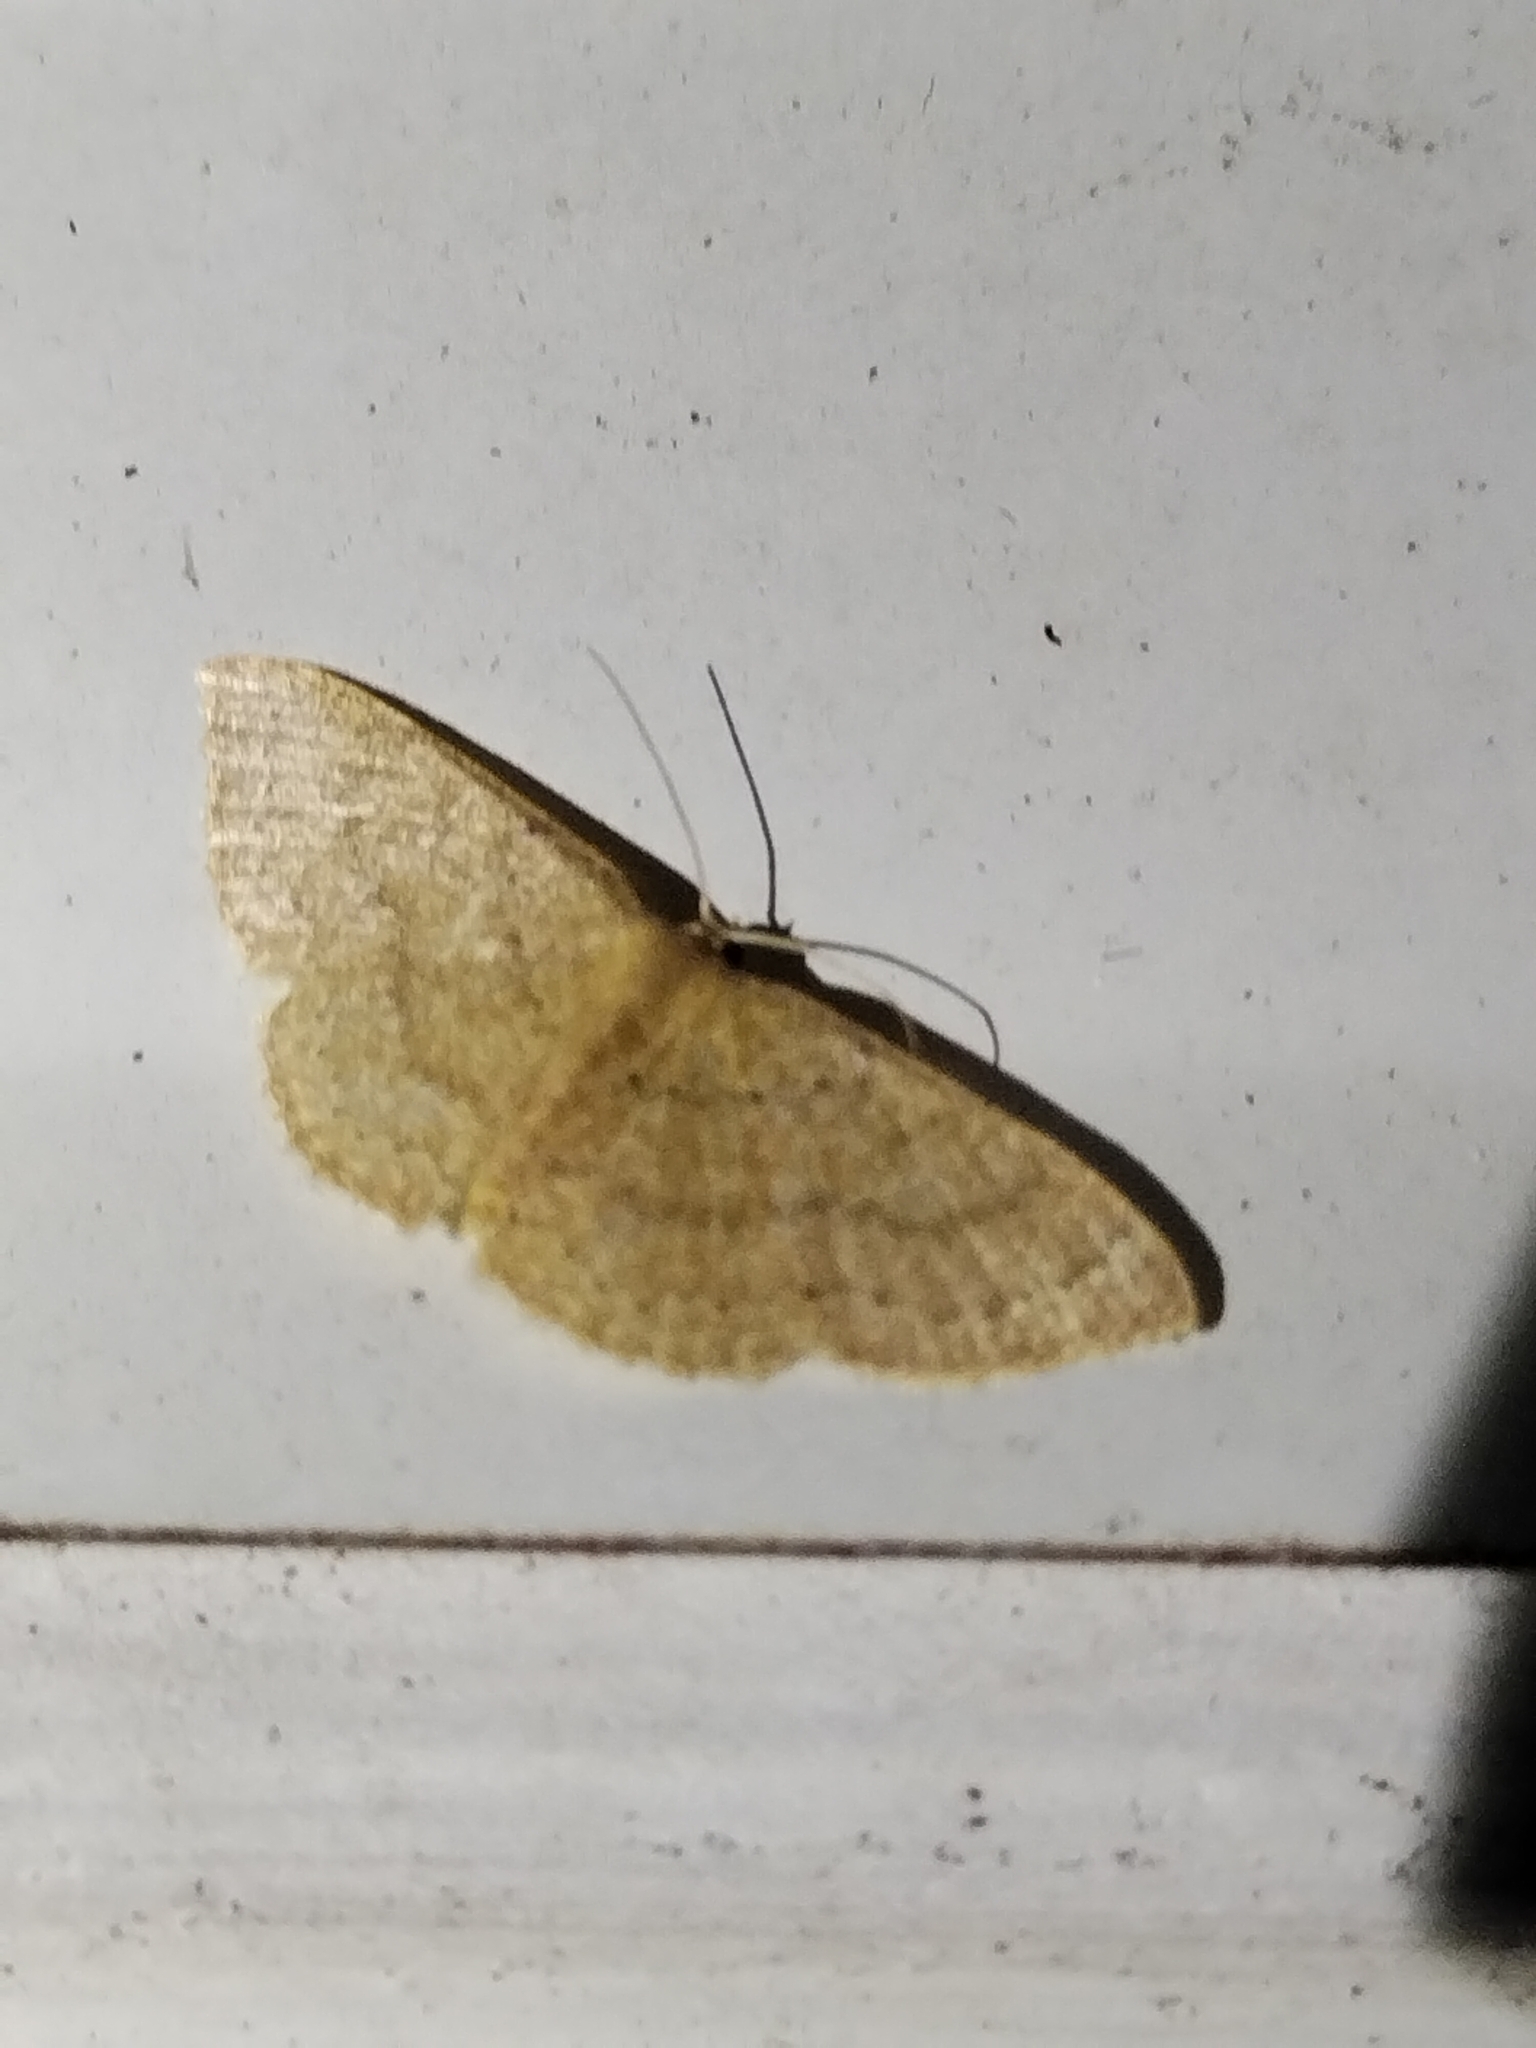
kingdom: Animalia
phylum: Arthropoda
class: Insecta
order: Lepidoptera
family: Geometridae
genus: Pleuroprucha
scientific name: Pleuroprucha insulsaria
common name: Common tan wave
